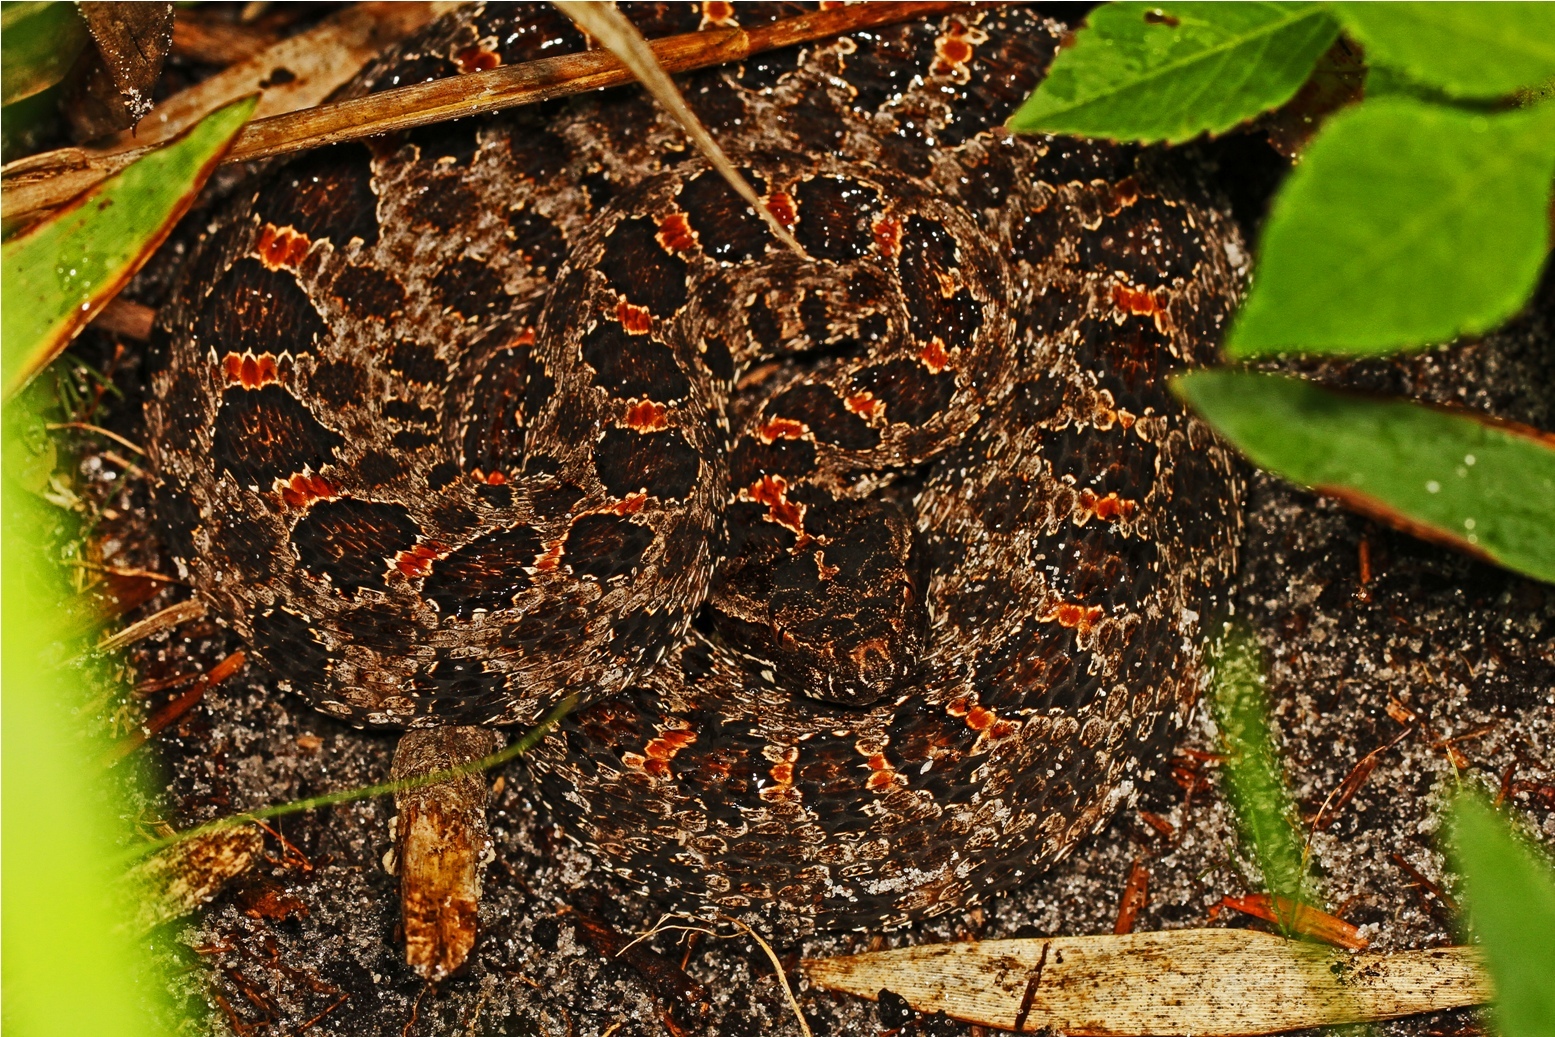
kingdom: Animalia
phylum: Chordata
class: Squamata
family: Viperidae
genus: Sistrurus
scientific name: Sistrurus miliarius
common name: Pygmy rattlesnake
